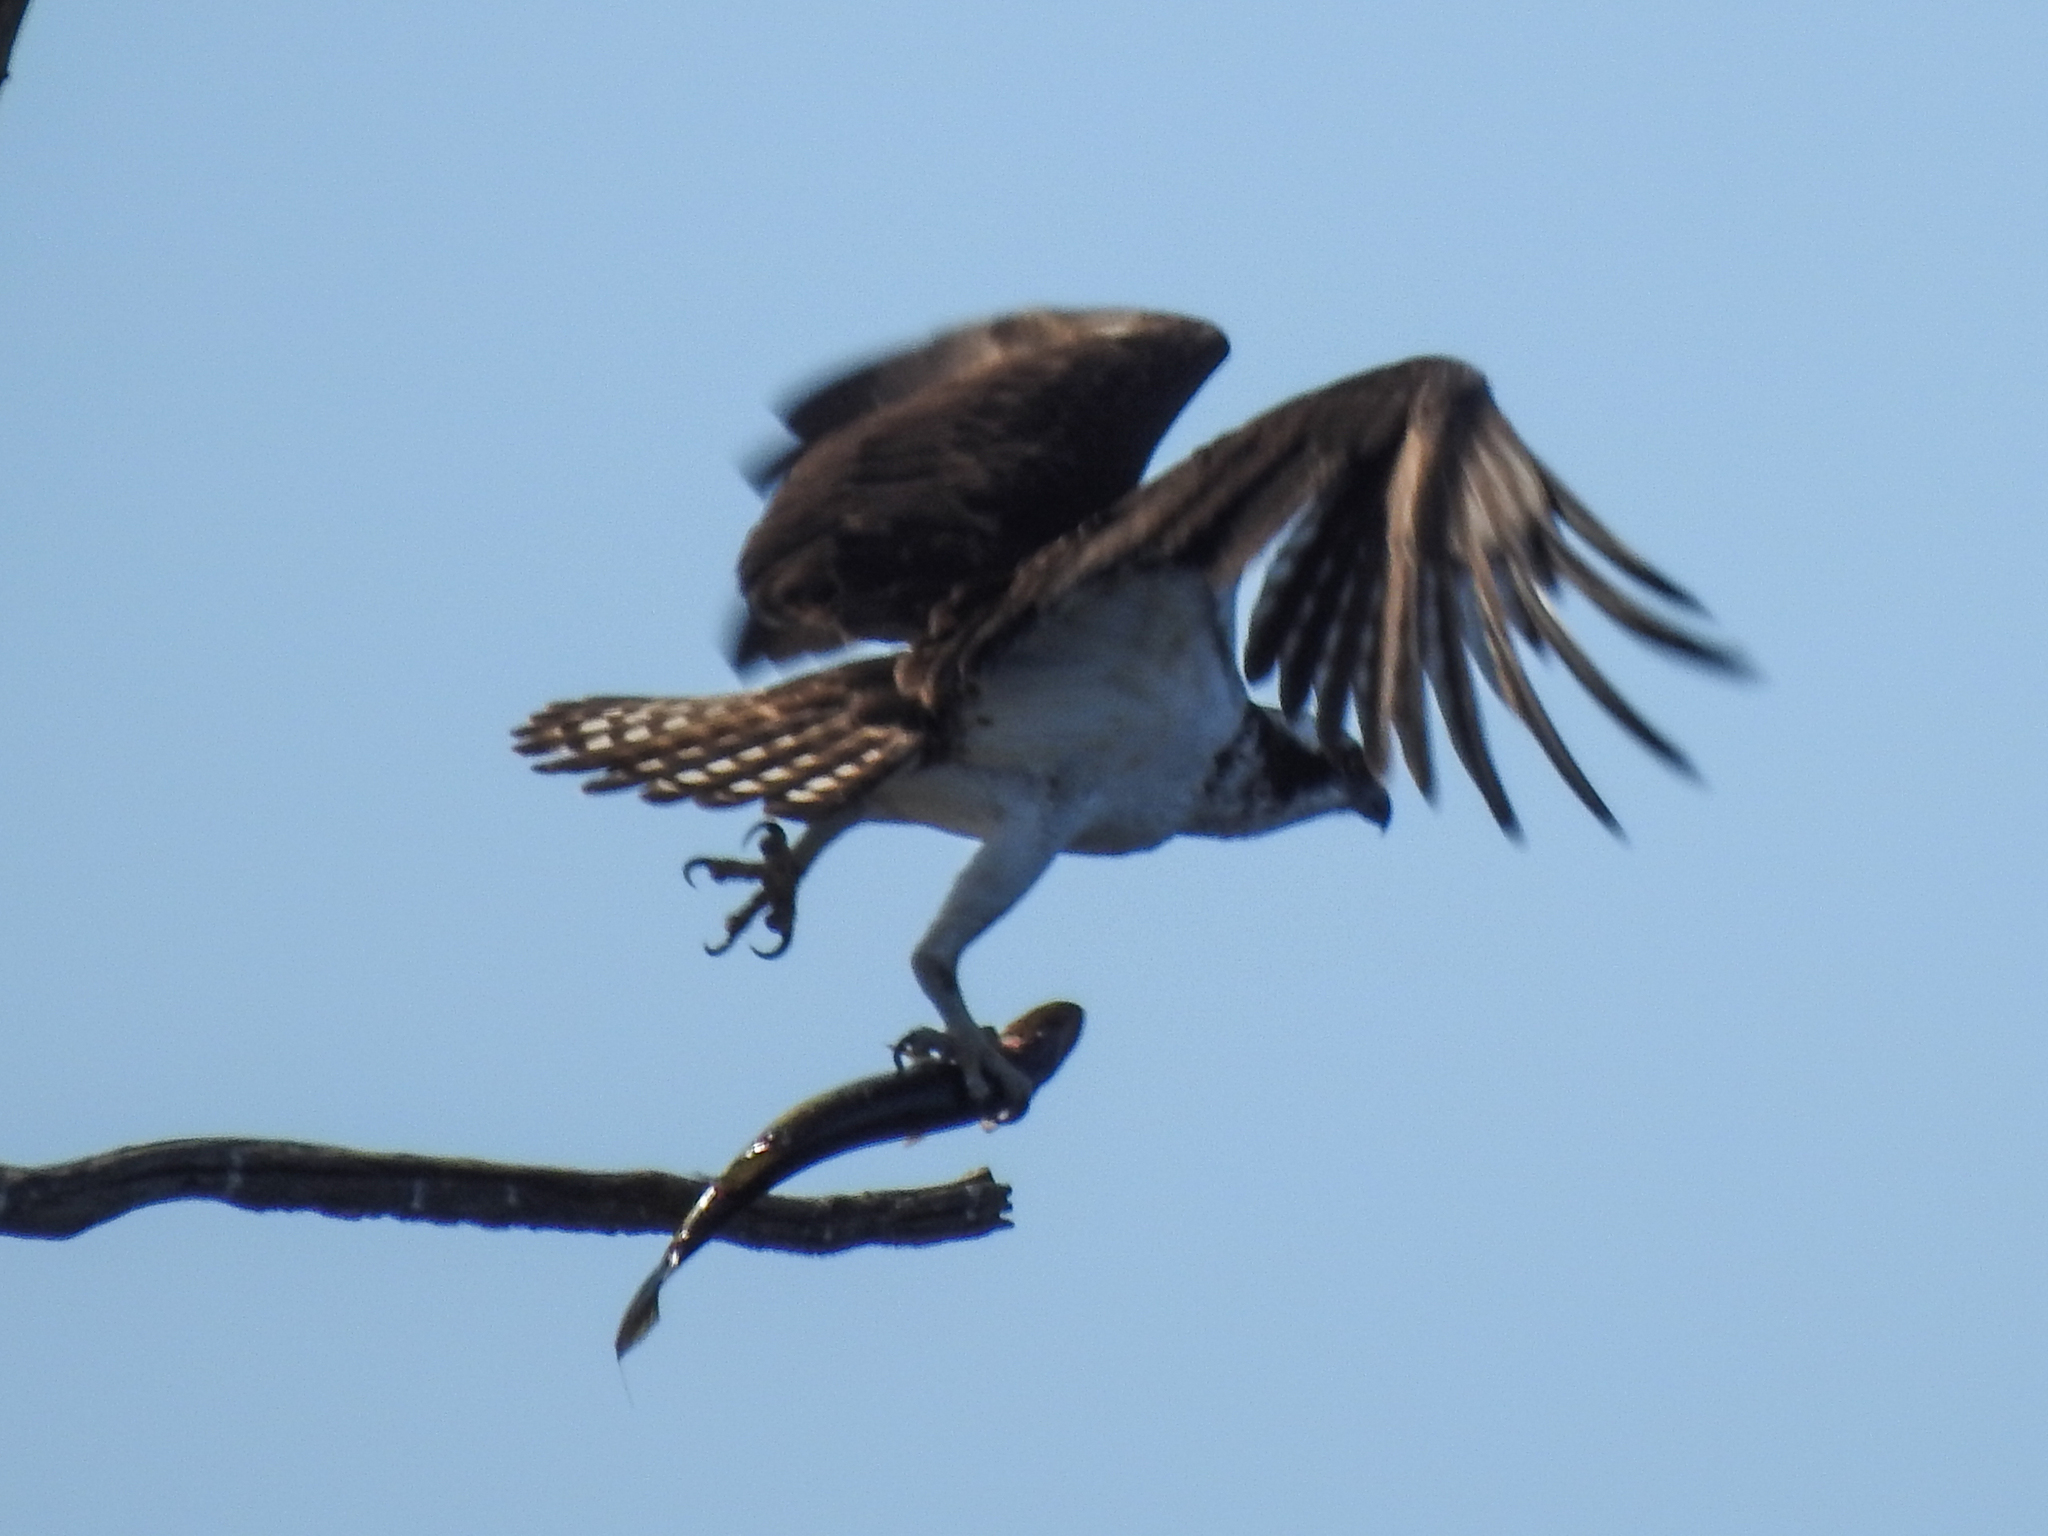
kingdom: Animalia
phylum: Chordata
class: Aves
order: Accipitriformes
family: Pandionidae
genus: Pandion
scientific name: Pandion haliaetus
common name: Osprey
